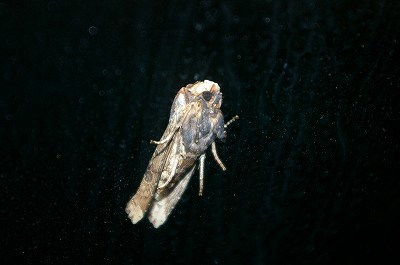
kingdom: Animalia
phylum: Arthropoda
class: Insecta
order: Lepidoptera
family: Noctuidae
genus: Xylena
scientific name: Xylena formosa
